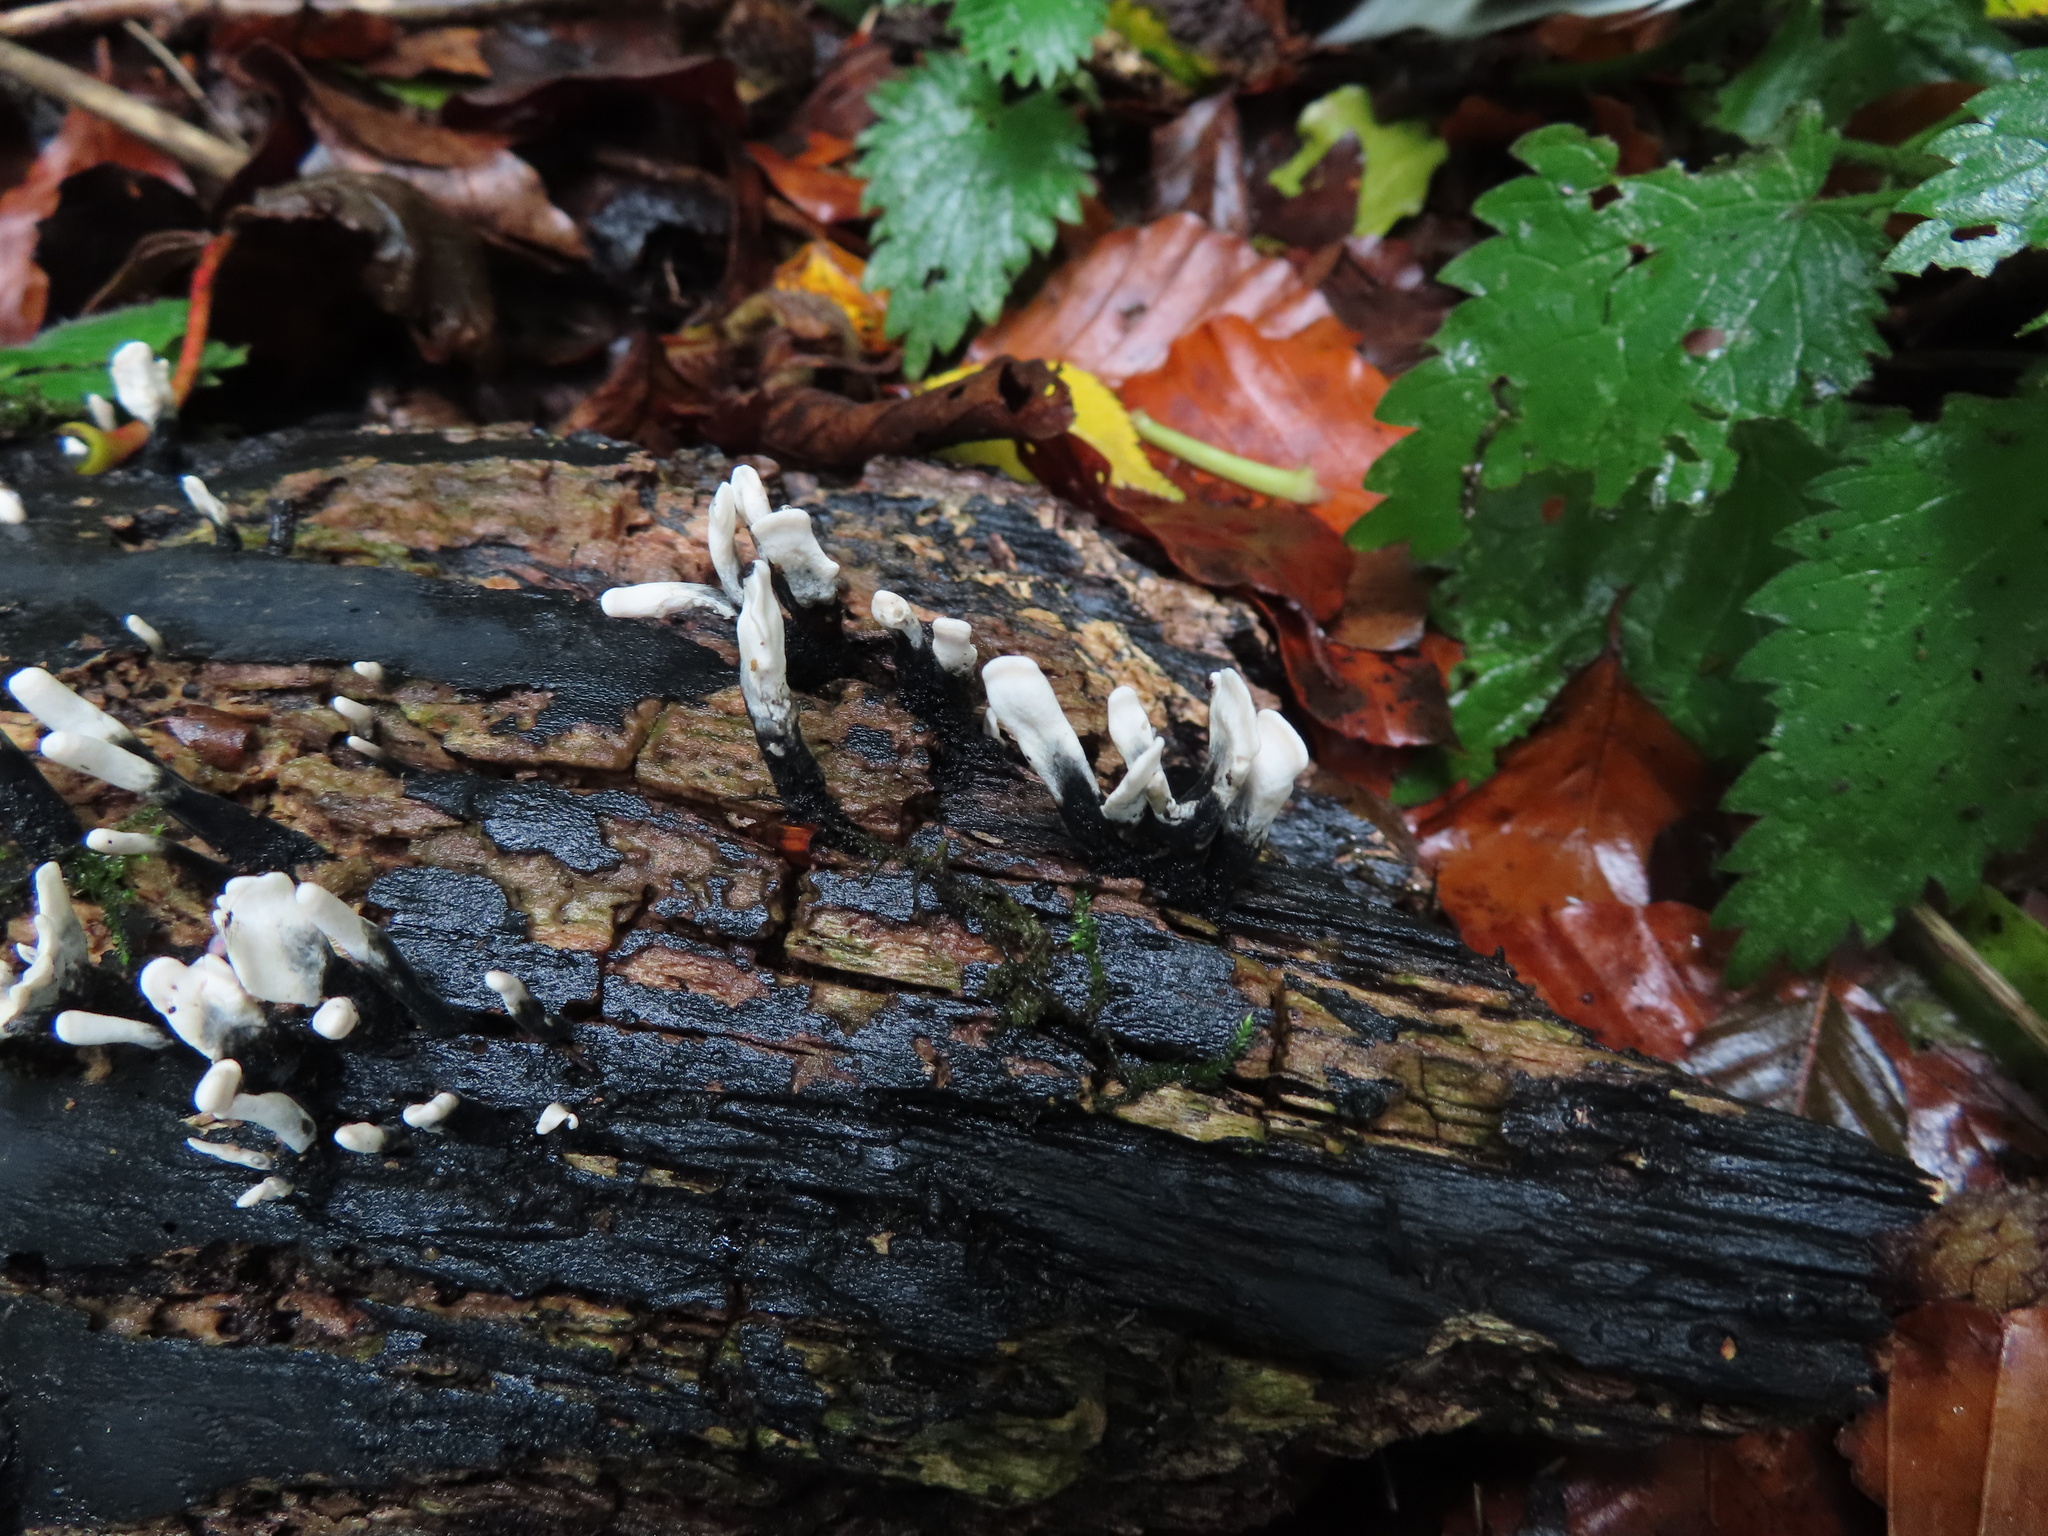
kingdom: Fungi
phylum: Ascomycota
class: Sordariomycetes
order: Xylariales
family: Xylariaceae
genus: Xylaria
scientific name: Xylaria hypoxylon
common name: Candle-snuff fungus
